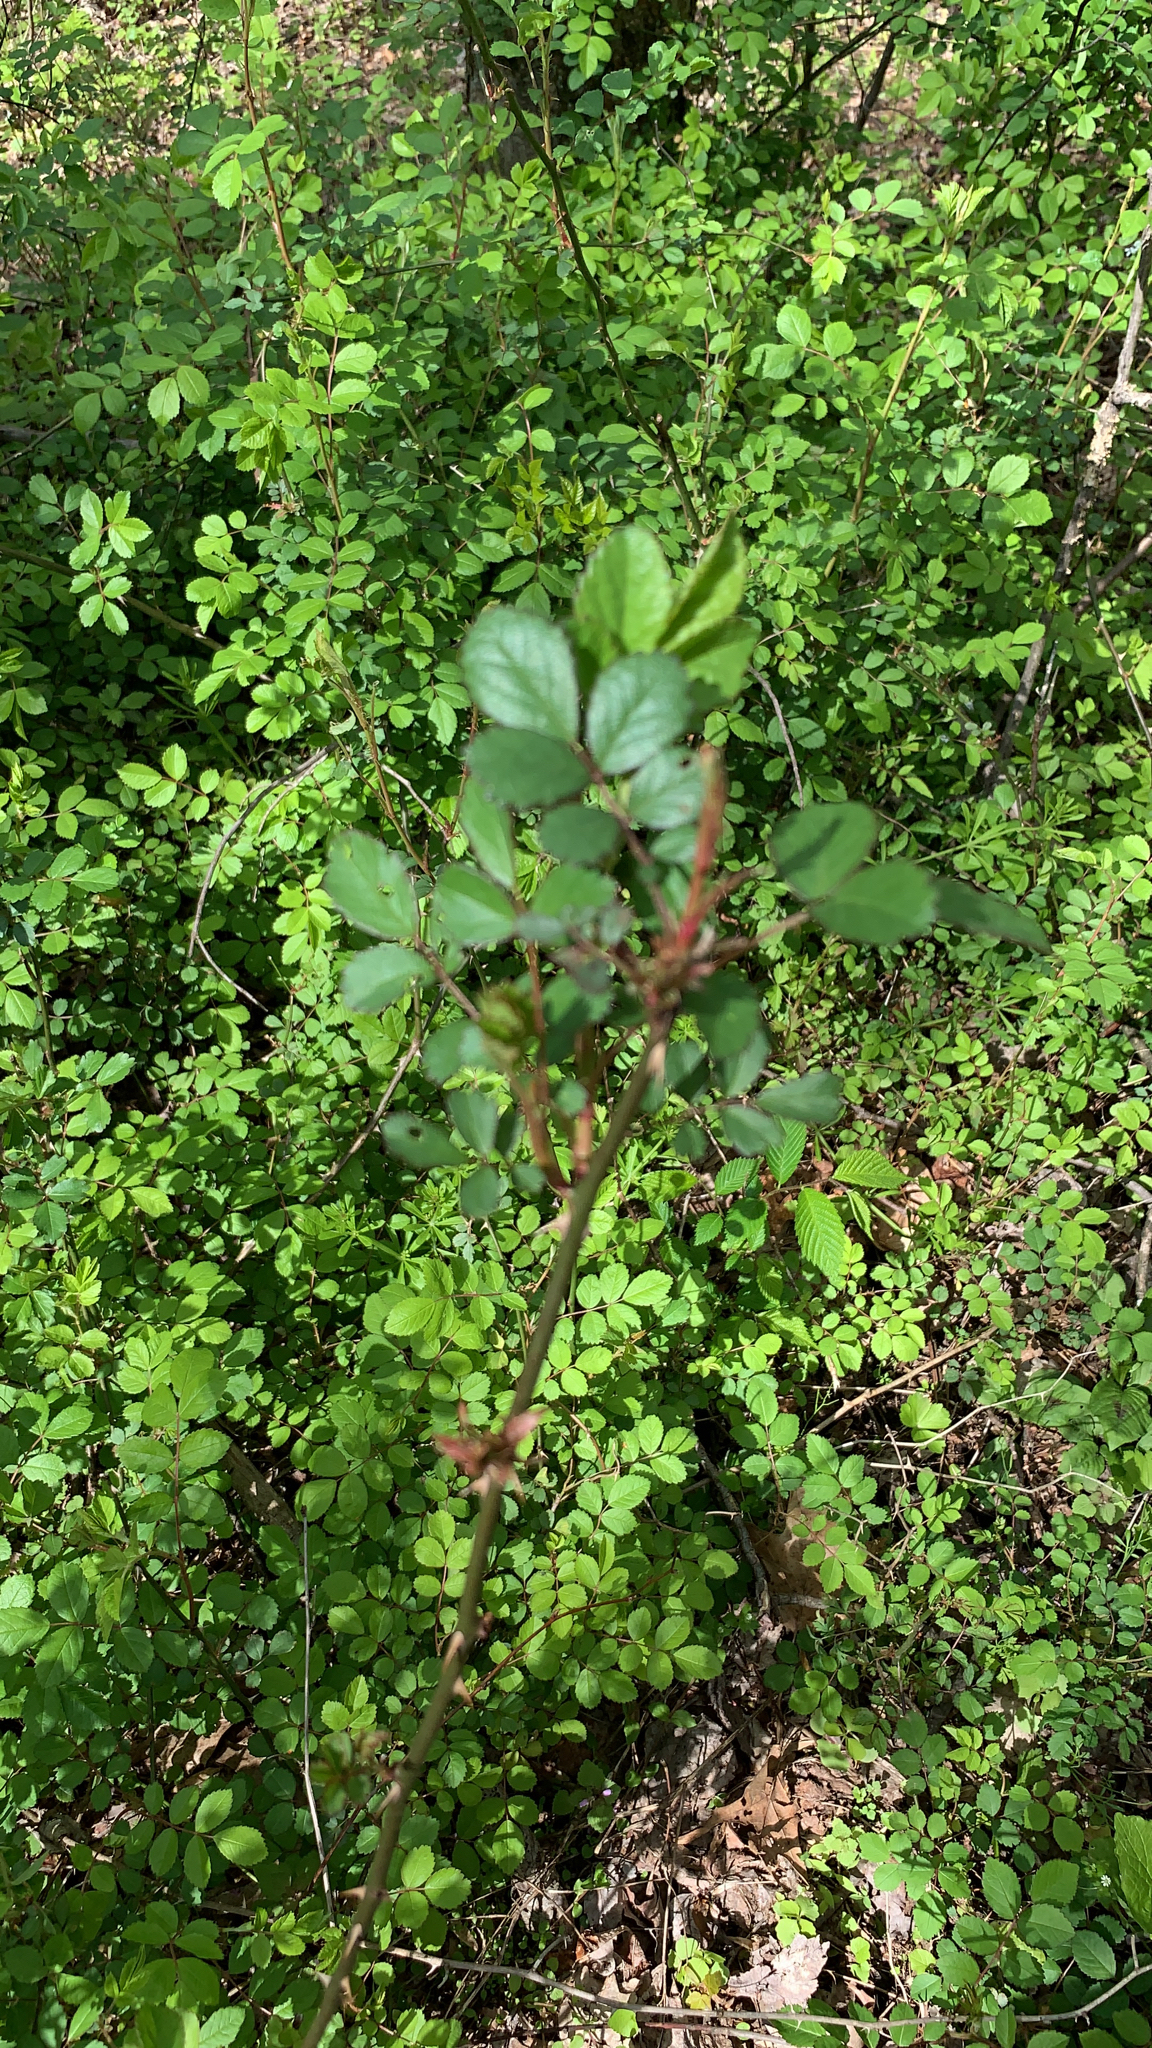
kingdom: Plantae
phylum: Tracheophyta
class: Magnoliopsida
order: Rosales
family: Rosaceae
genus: Rosa
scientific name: Rosa multiflora
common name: Multiflora rose
